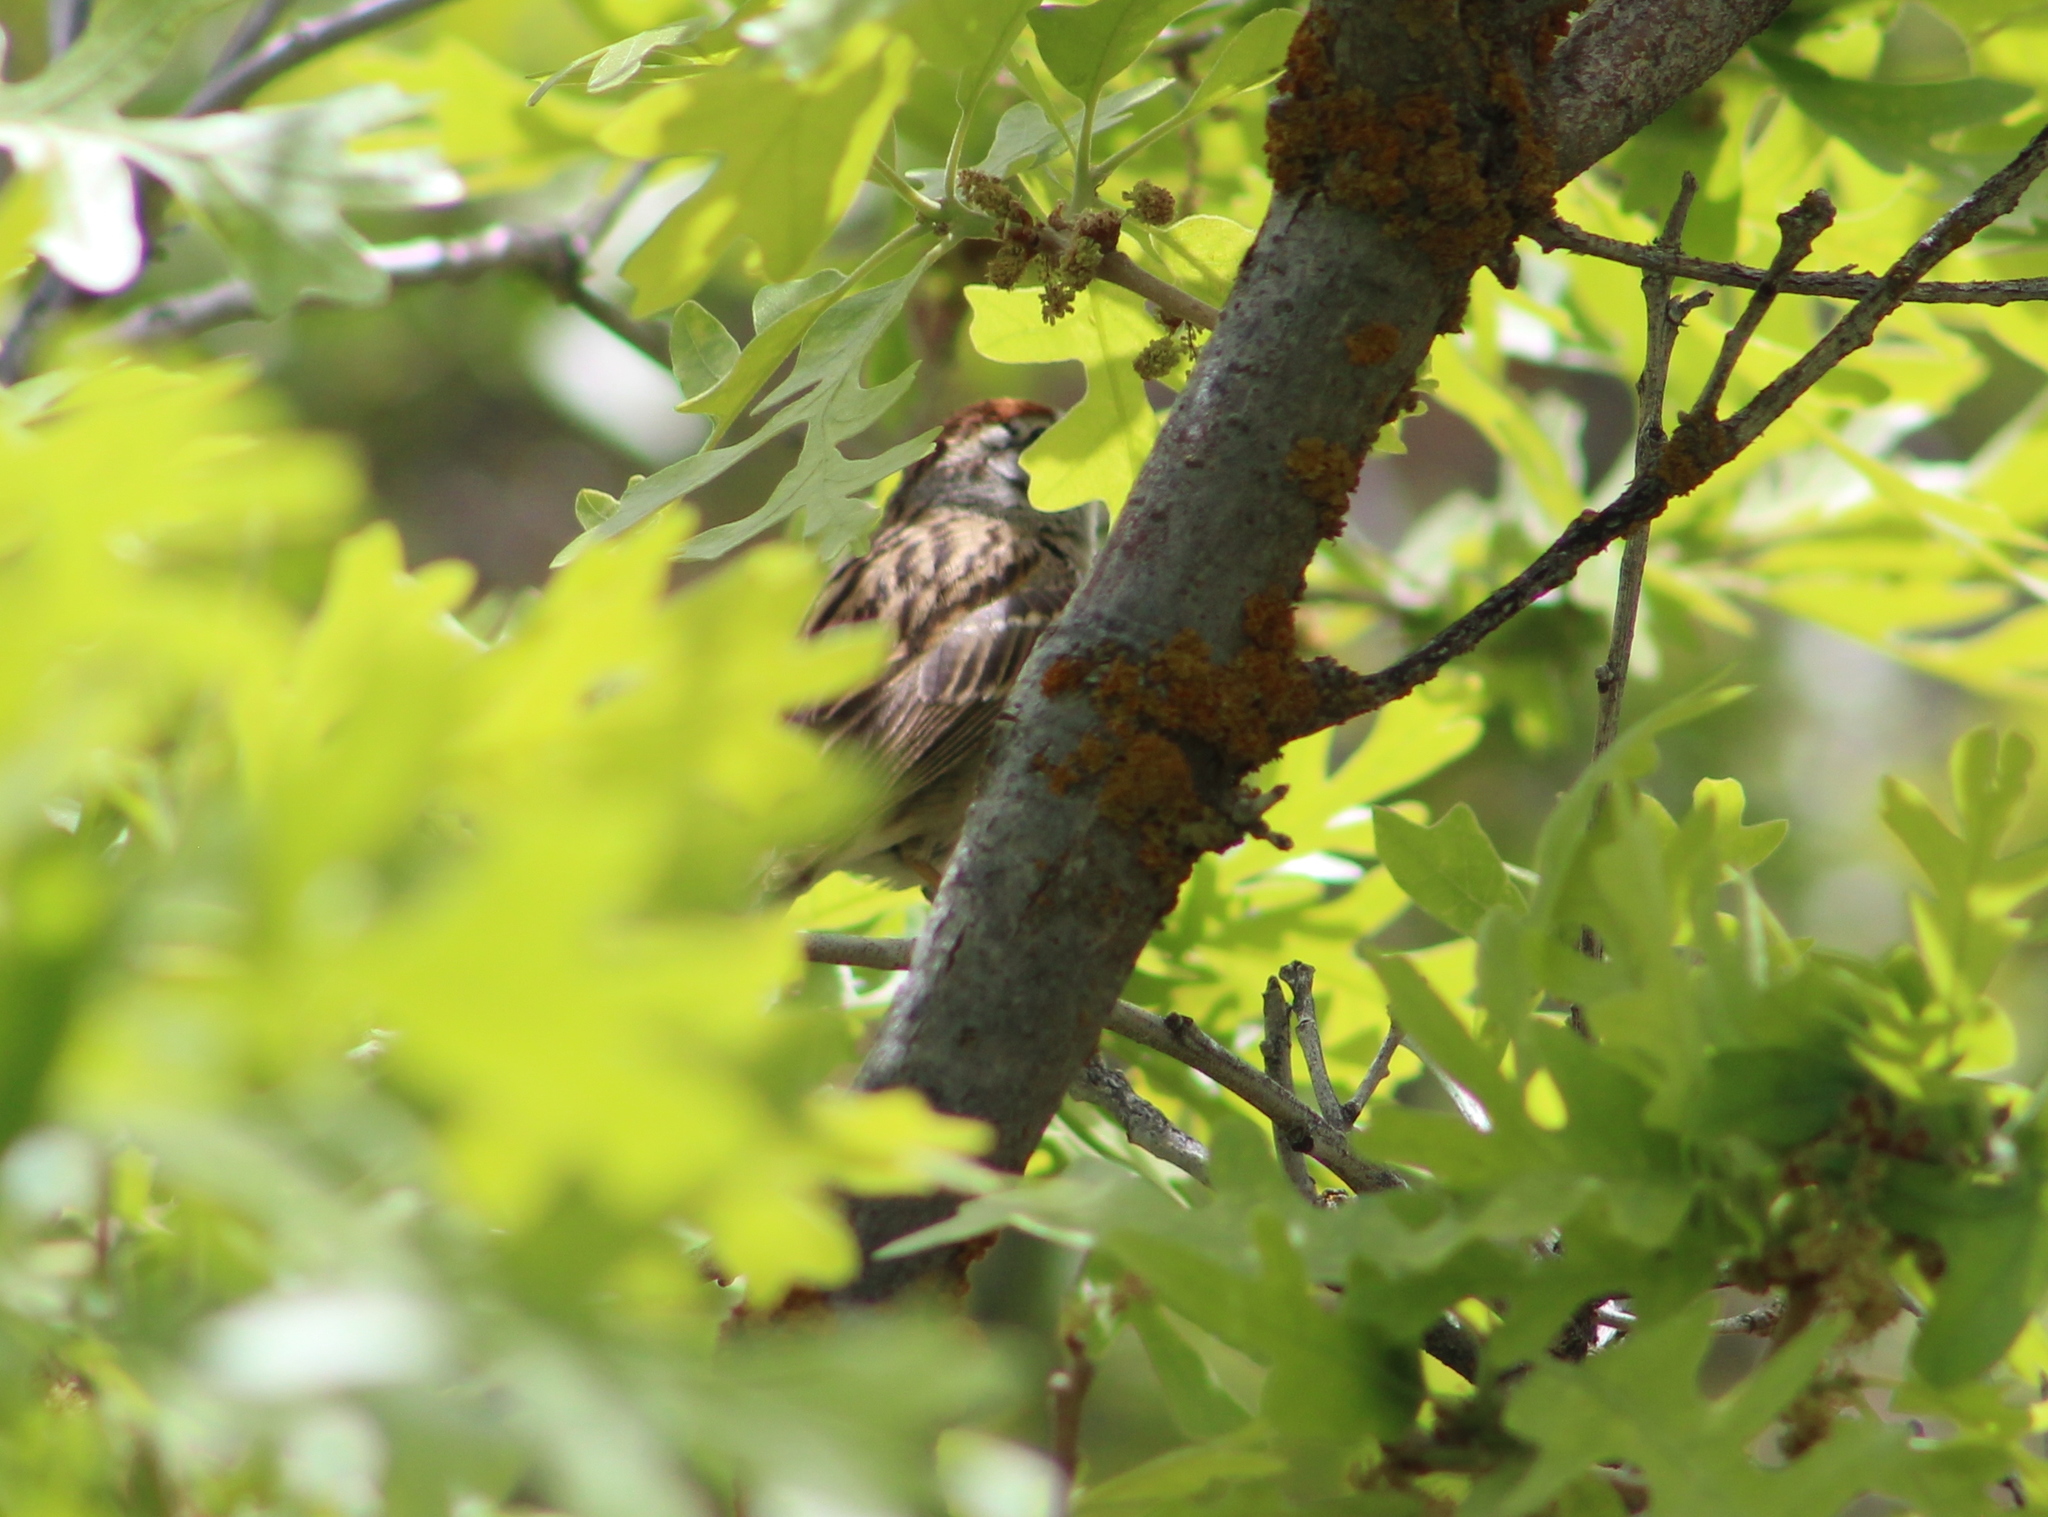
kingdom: Animalia
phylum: Chordata
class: Aves
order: Passeriformes
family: Passerellidae
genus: Spizella
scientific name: Spizella passerina
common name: Chipping sparrow
